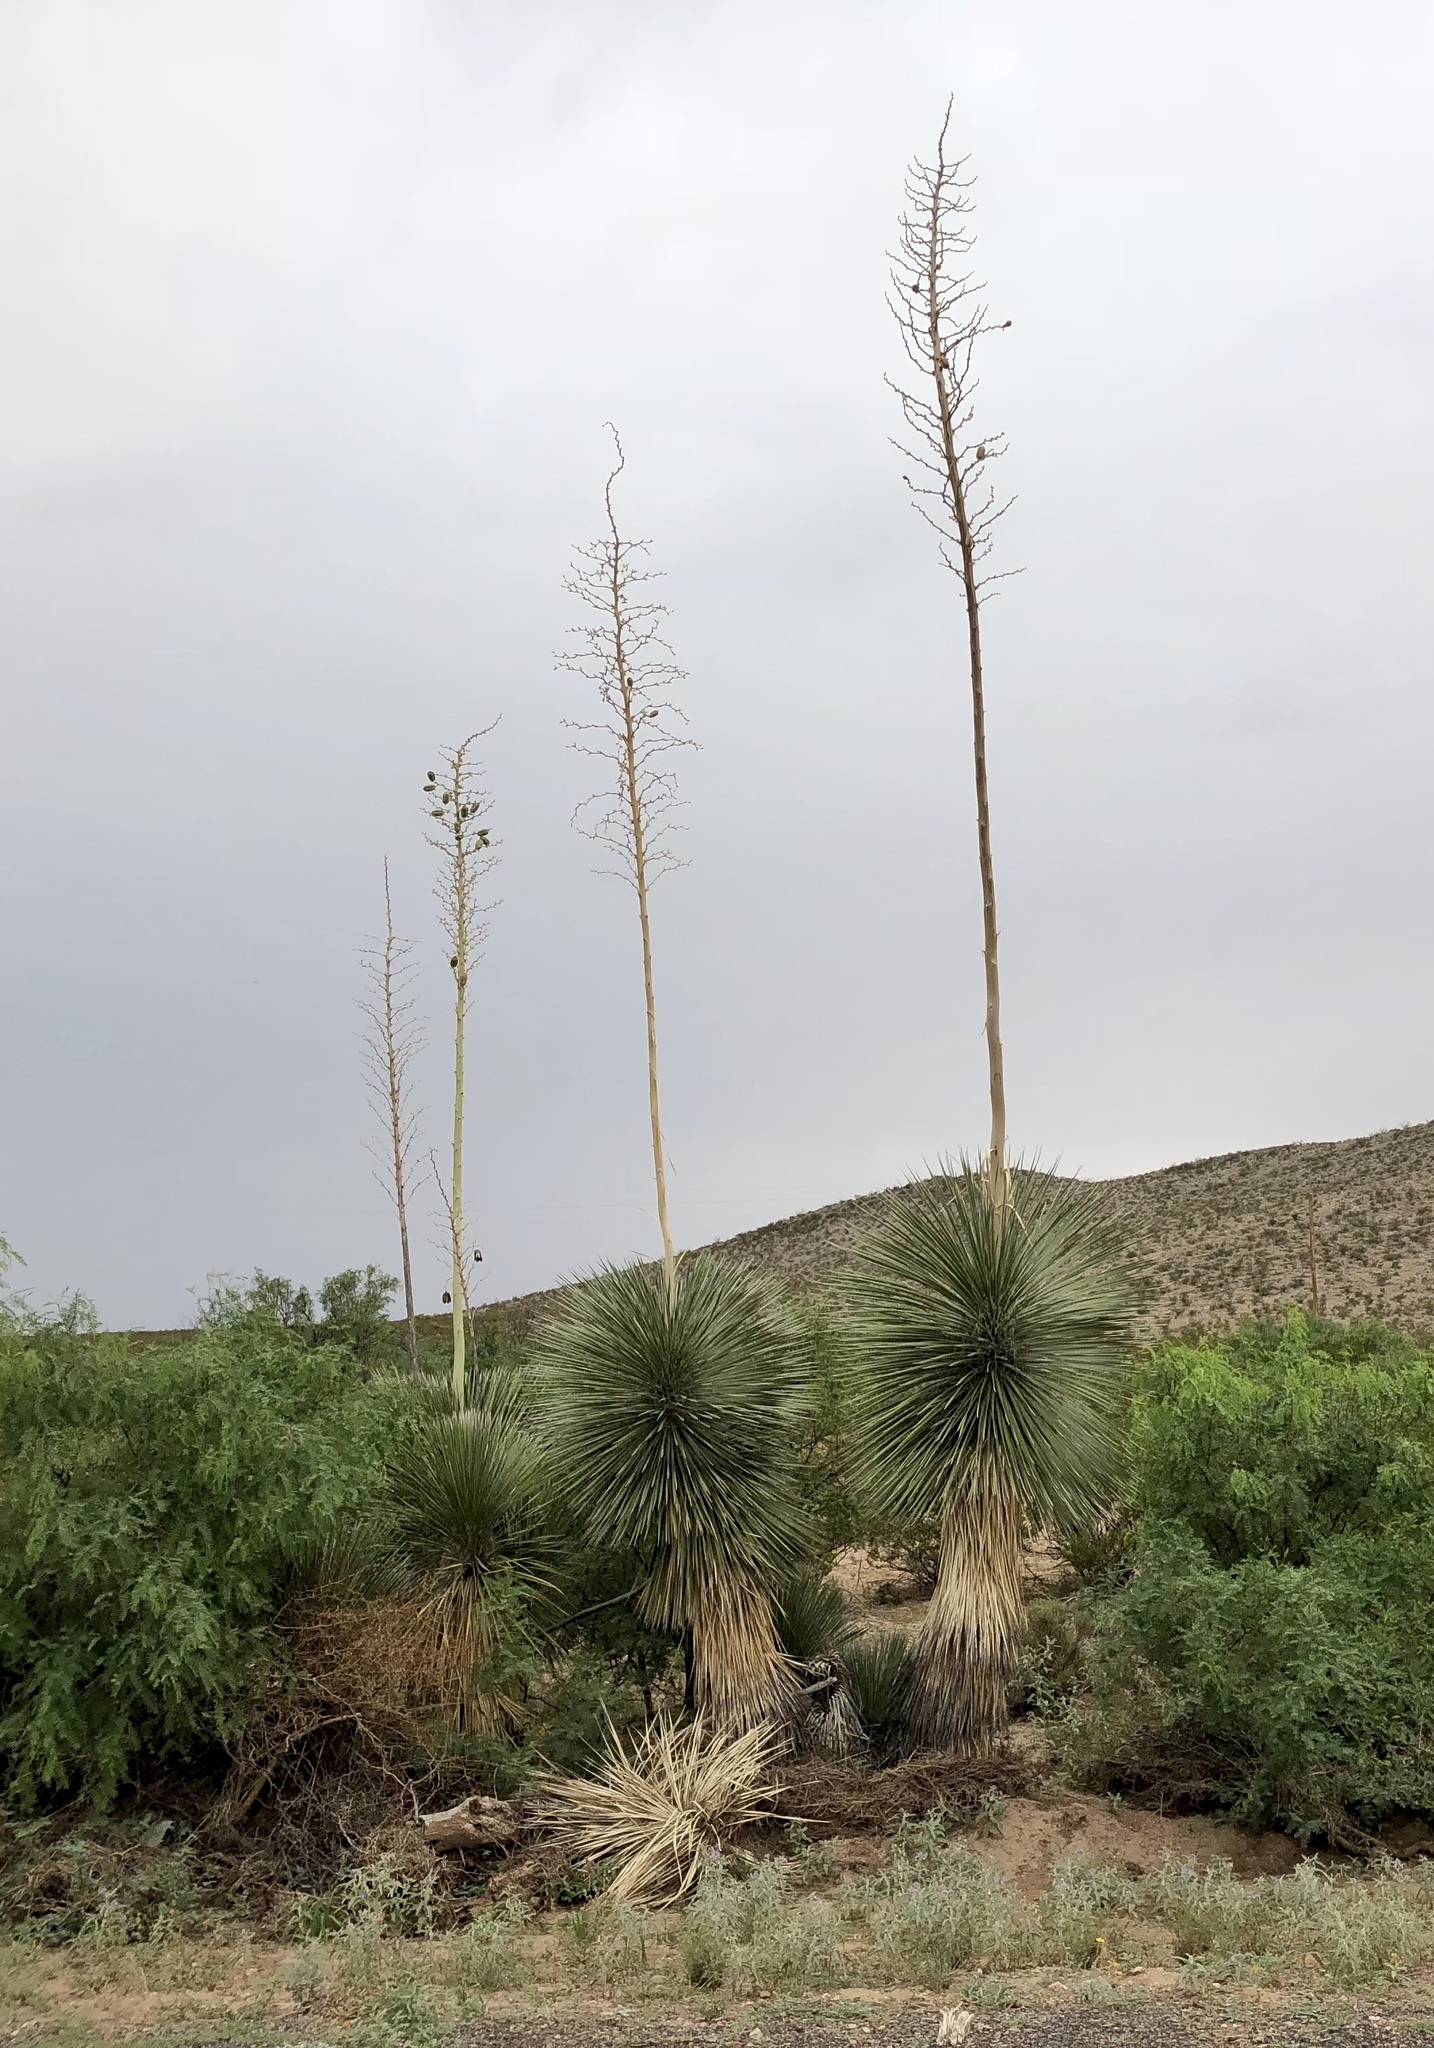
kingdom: Plantae
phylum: Tracheophyta
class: Liliopsida
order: Asparagales
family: Asparagaceae
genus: Yucca
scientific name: Yucca elata
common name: Palmella
